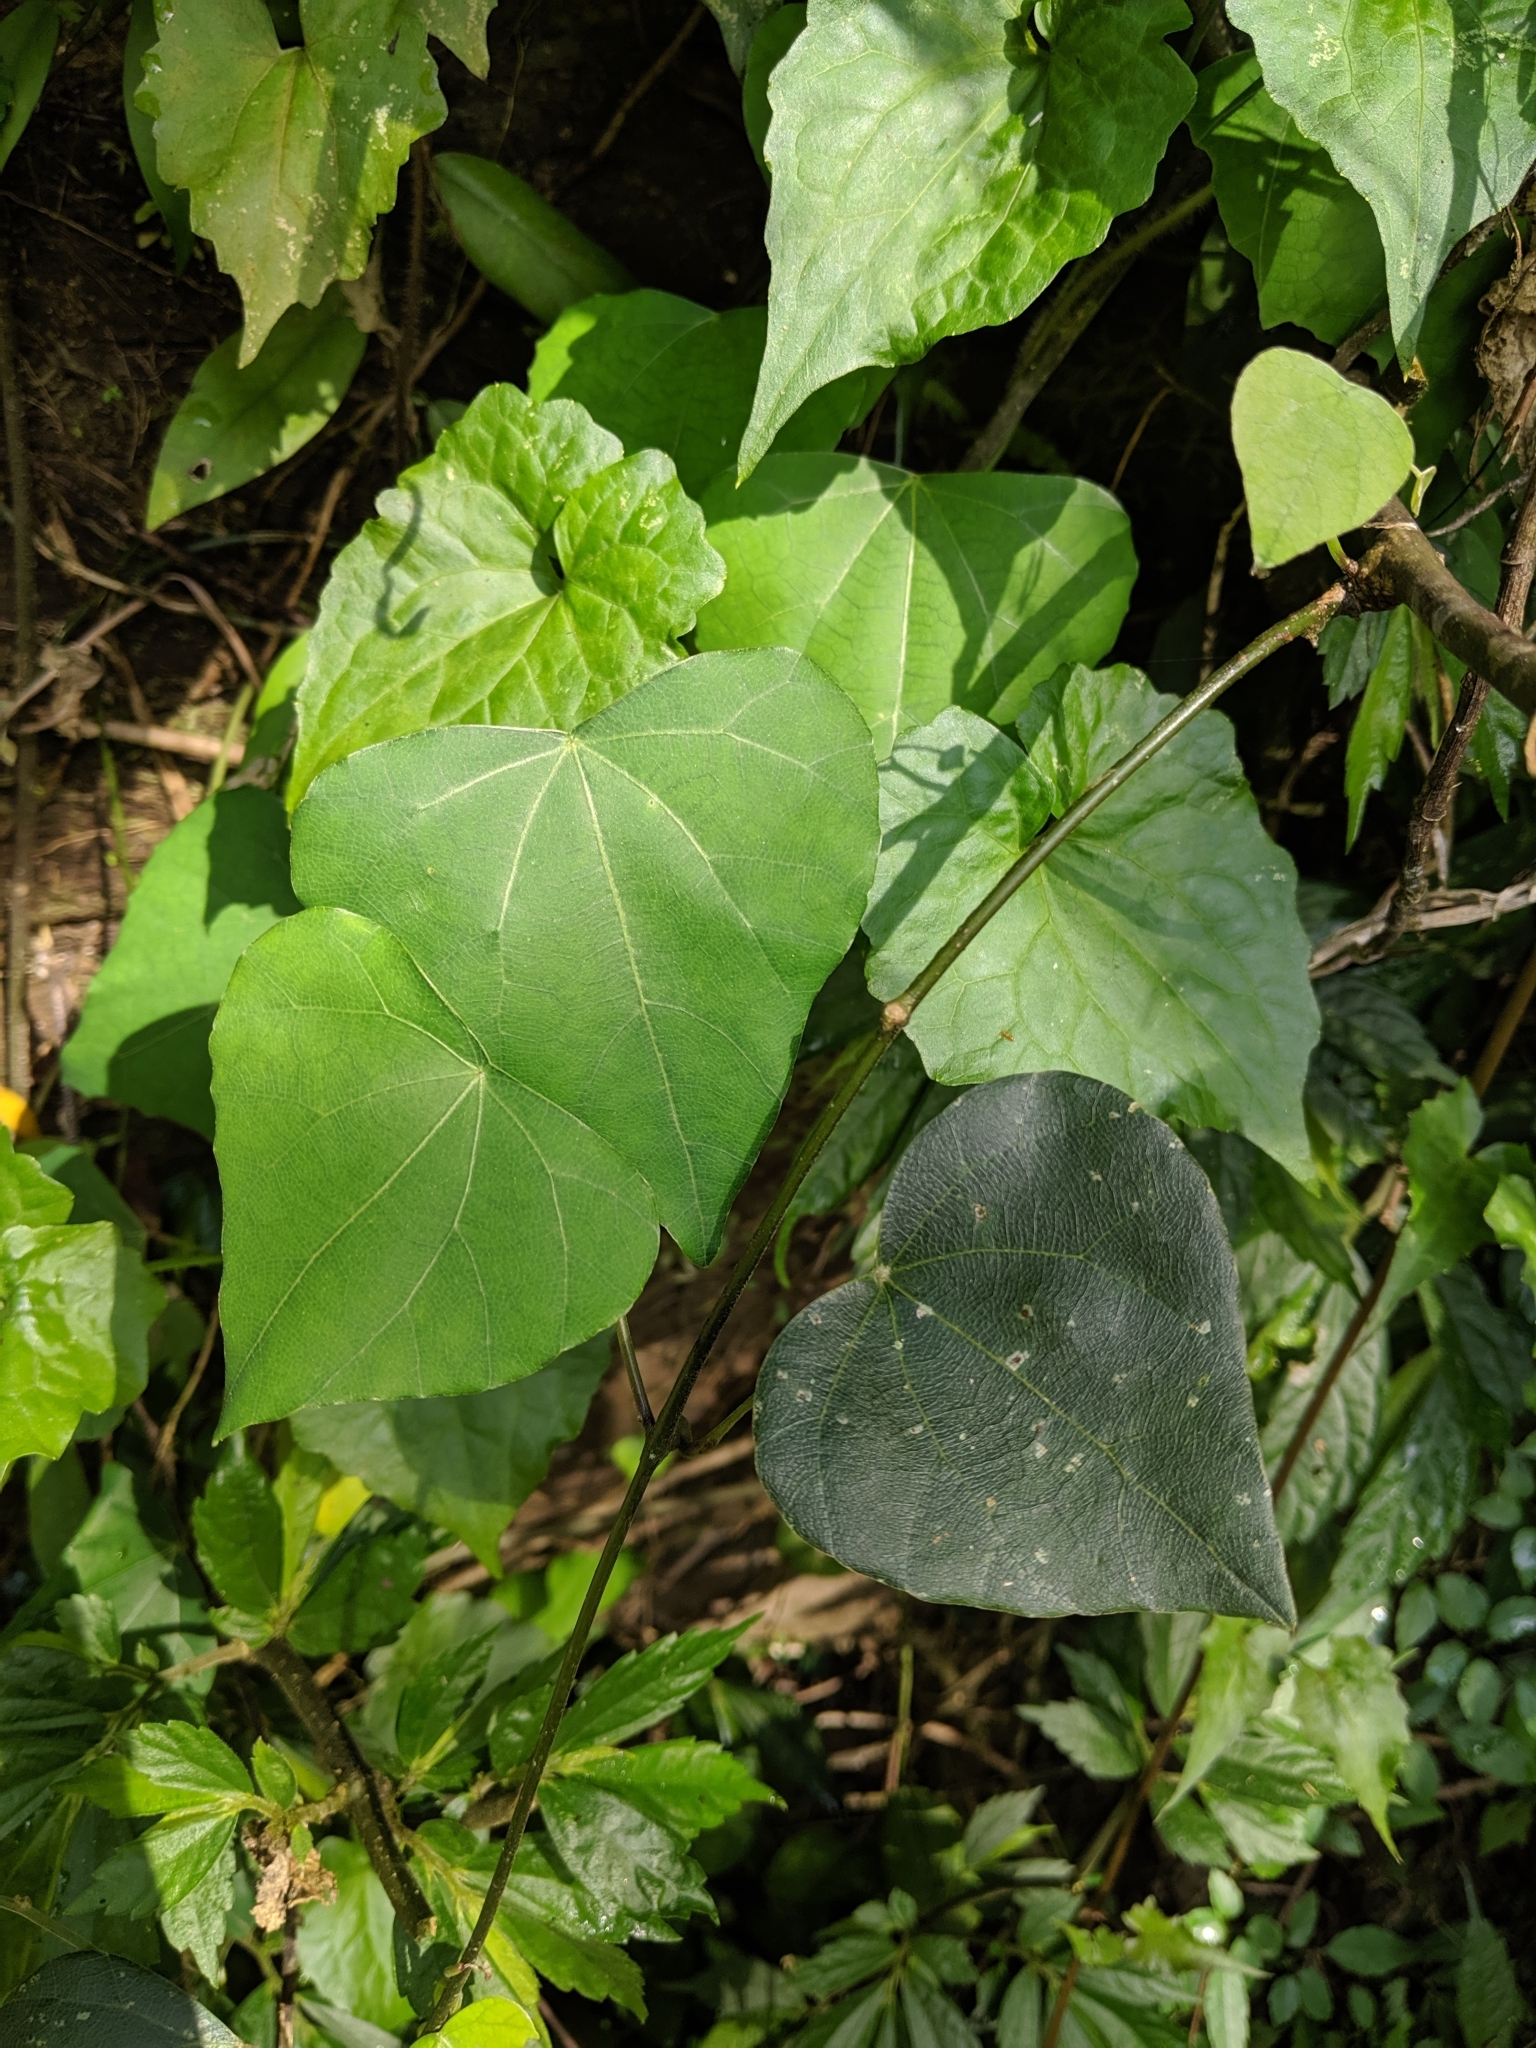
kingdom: Plantae
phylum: Tracheophyta
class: Magnoliopsida
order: Malpighiales
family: Euphorbiaceae
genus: Mallotus
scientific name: Mallotus repandus
